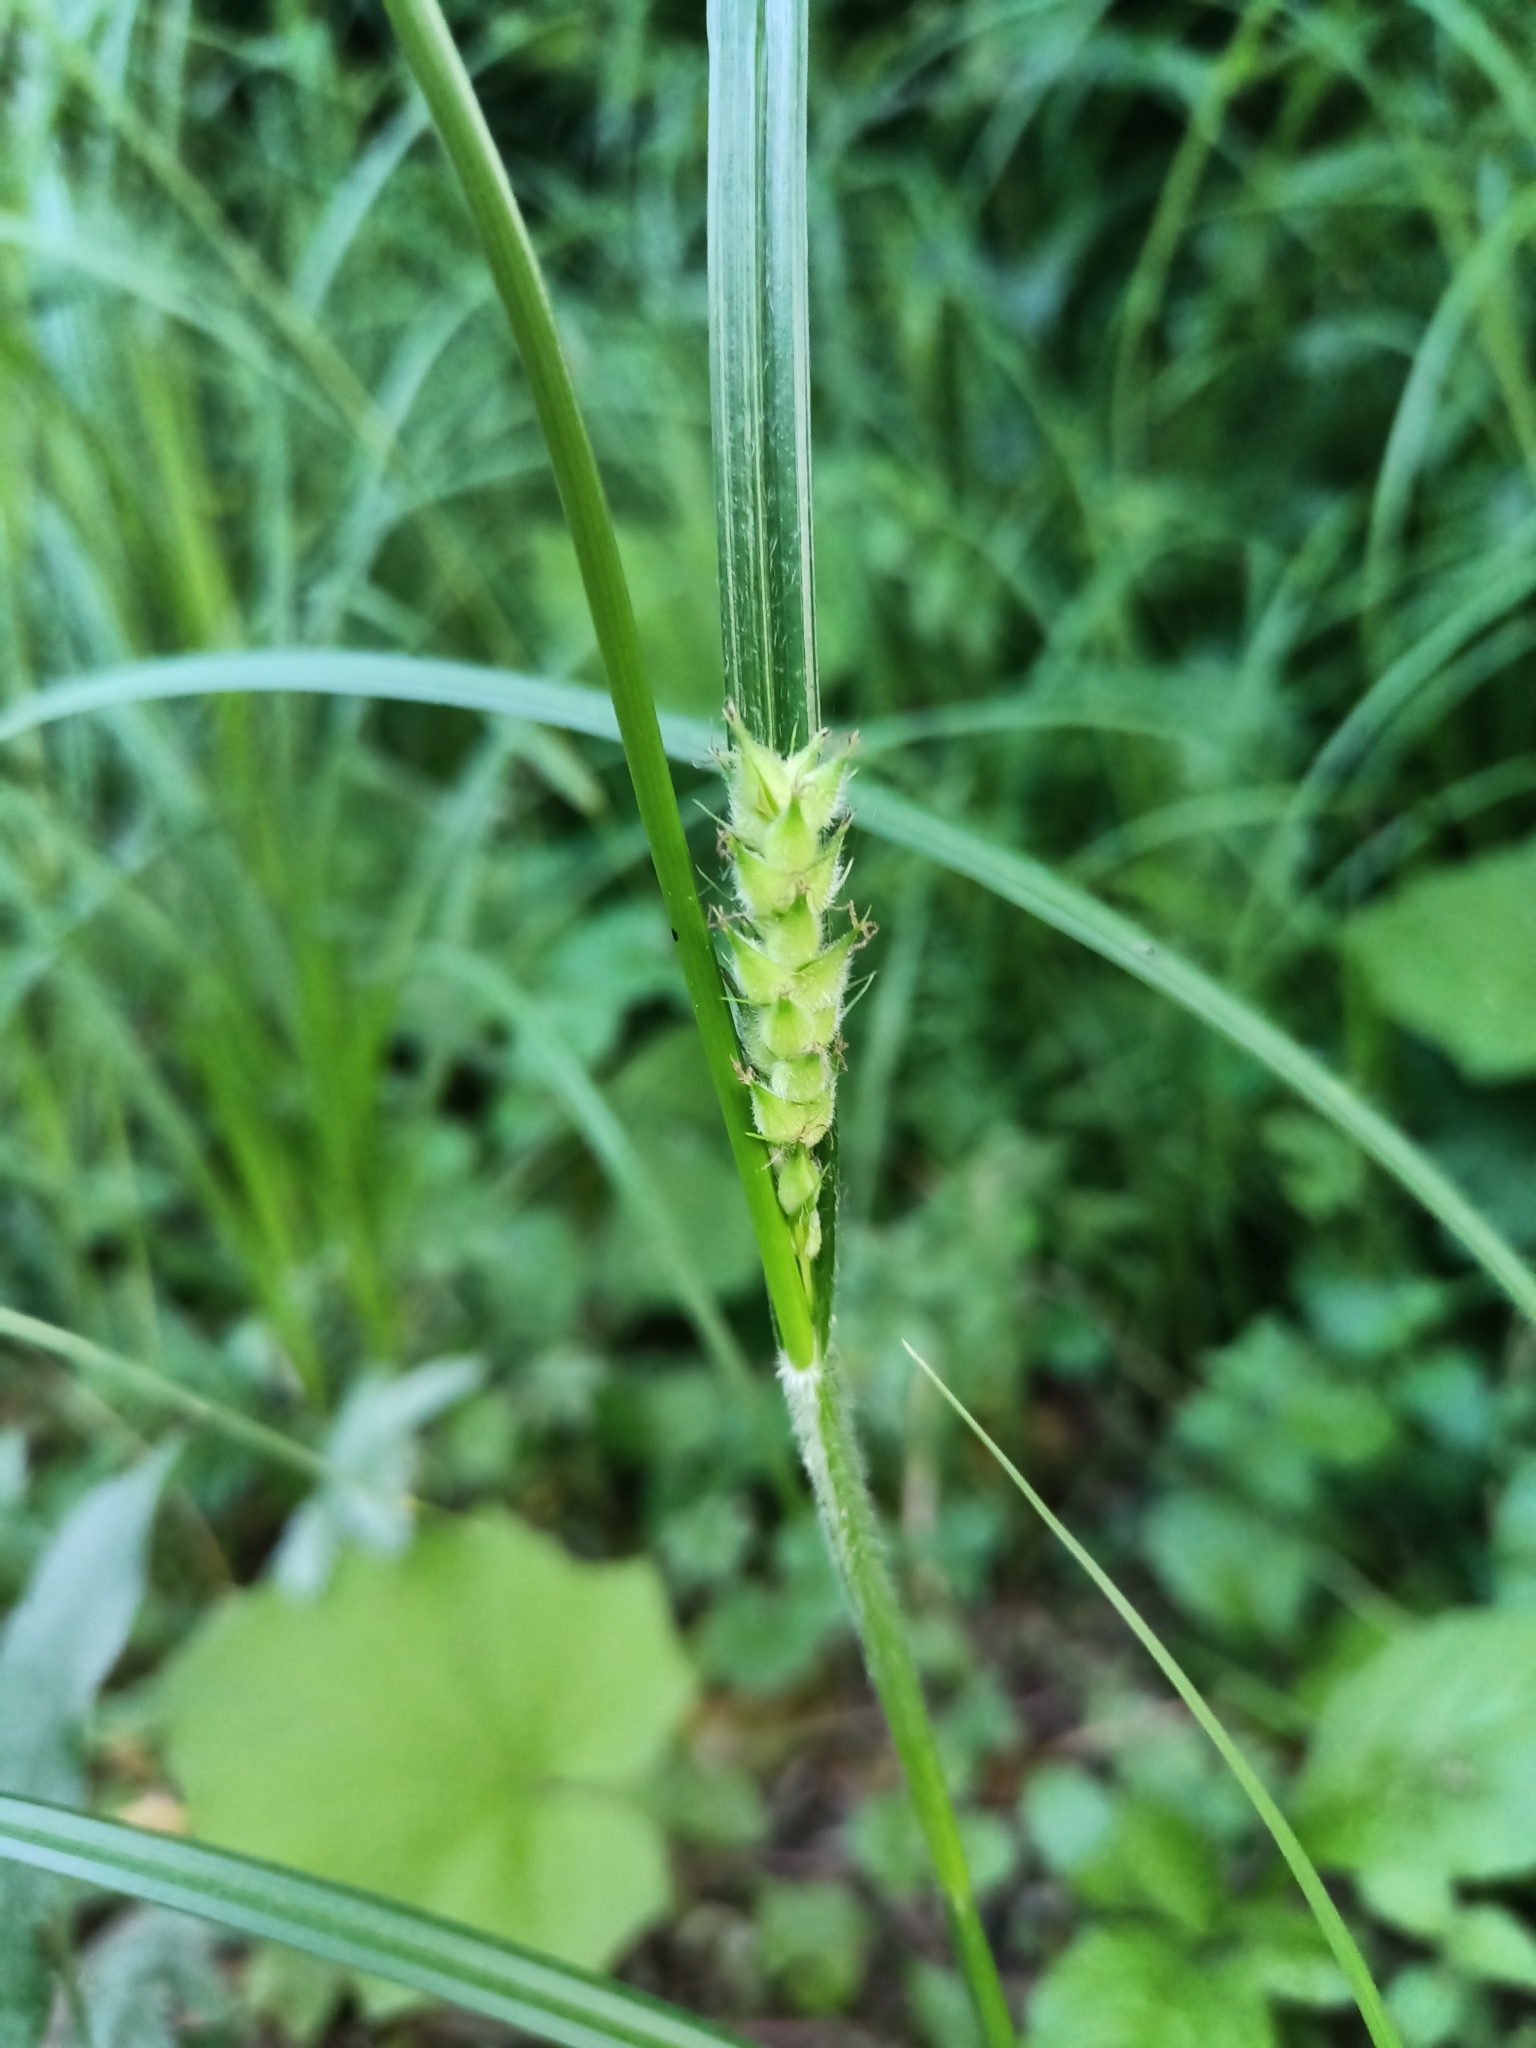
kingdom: Plantae
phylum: Tracheophyta
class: Liliopsida
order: Poales
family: Cyperaceae
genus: Carex
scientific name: Carex hirta
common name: Hairy sedge
